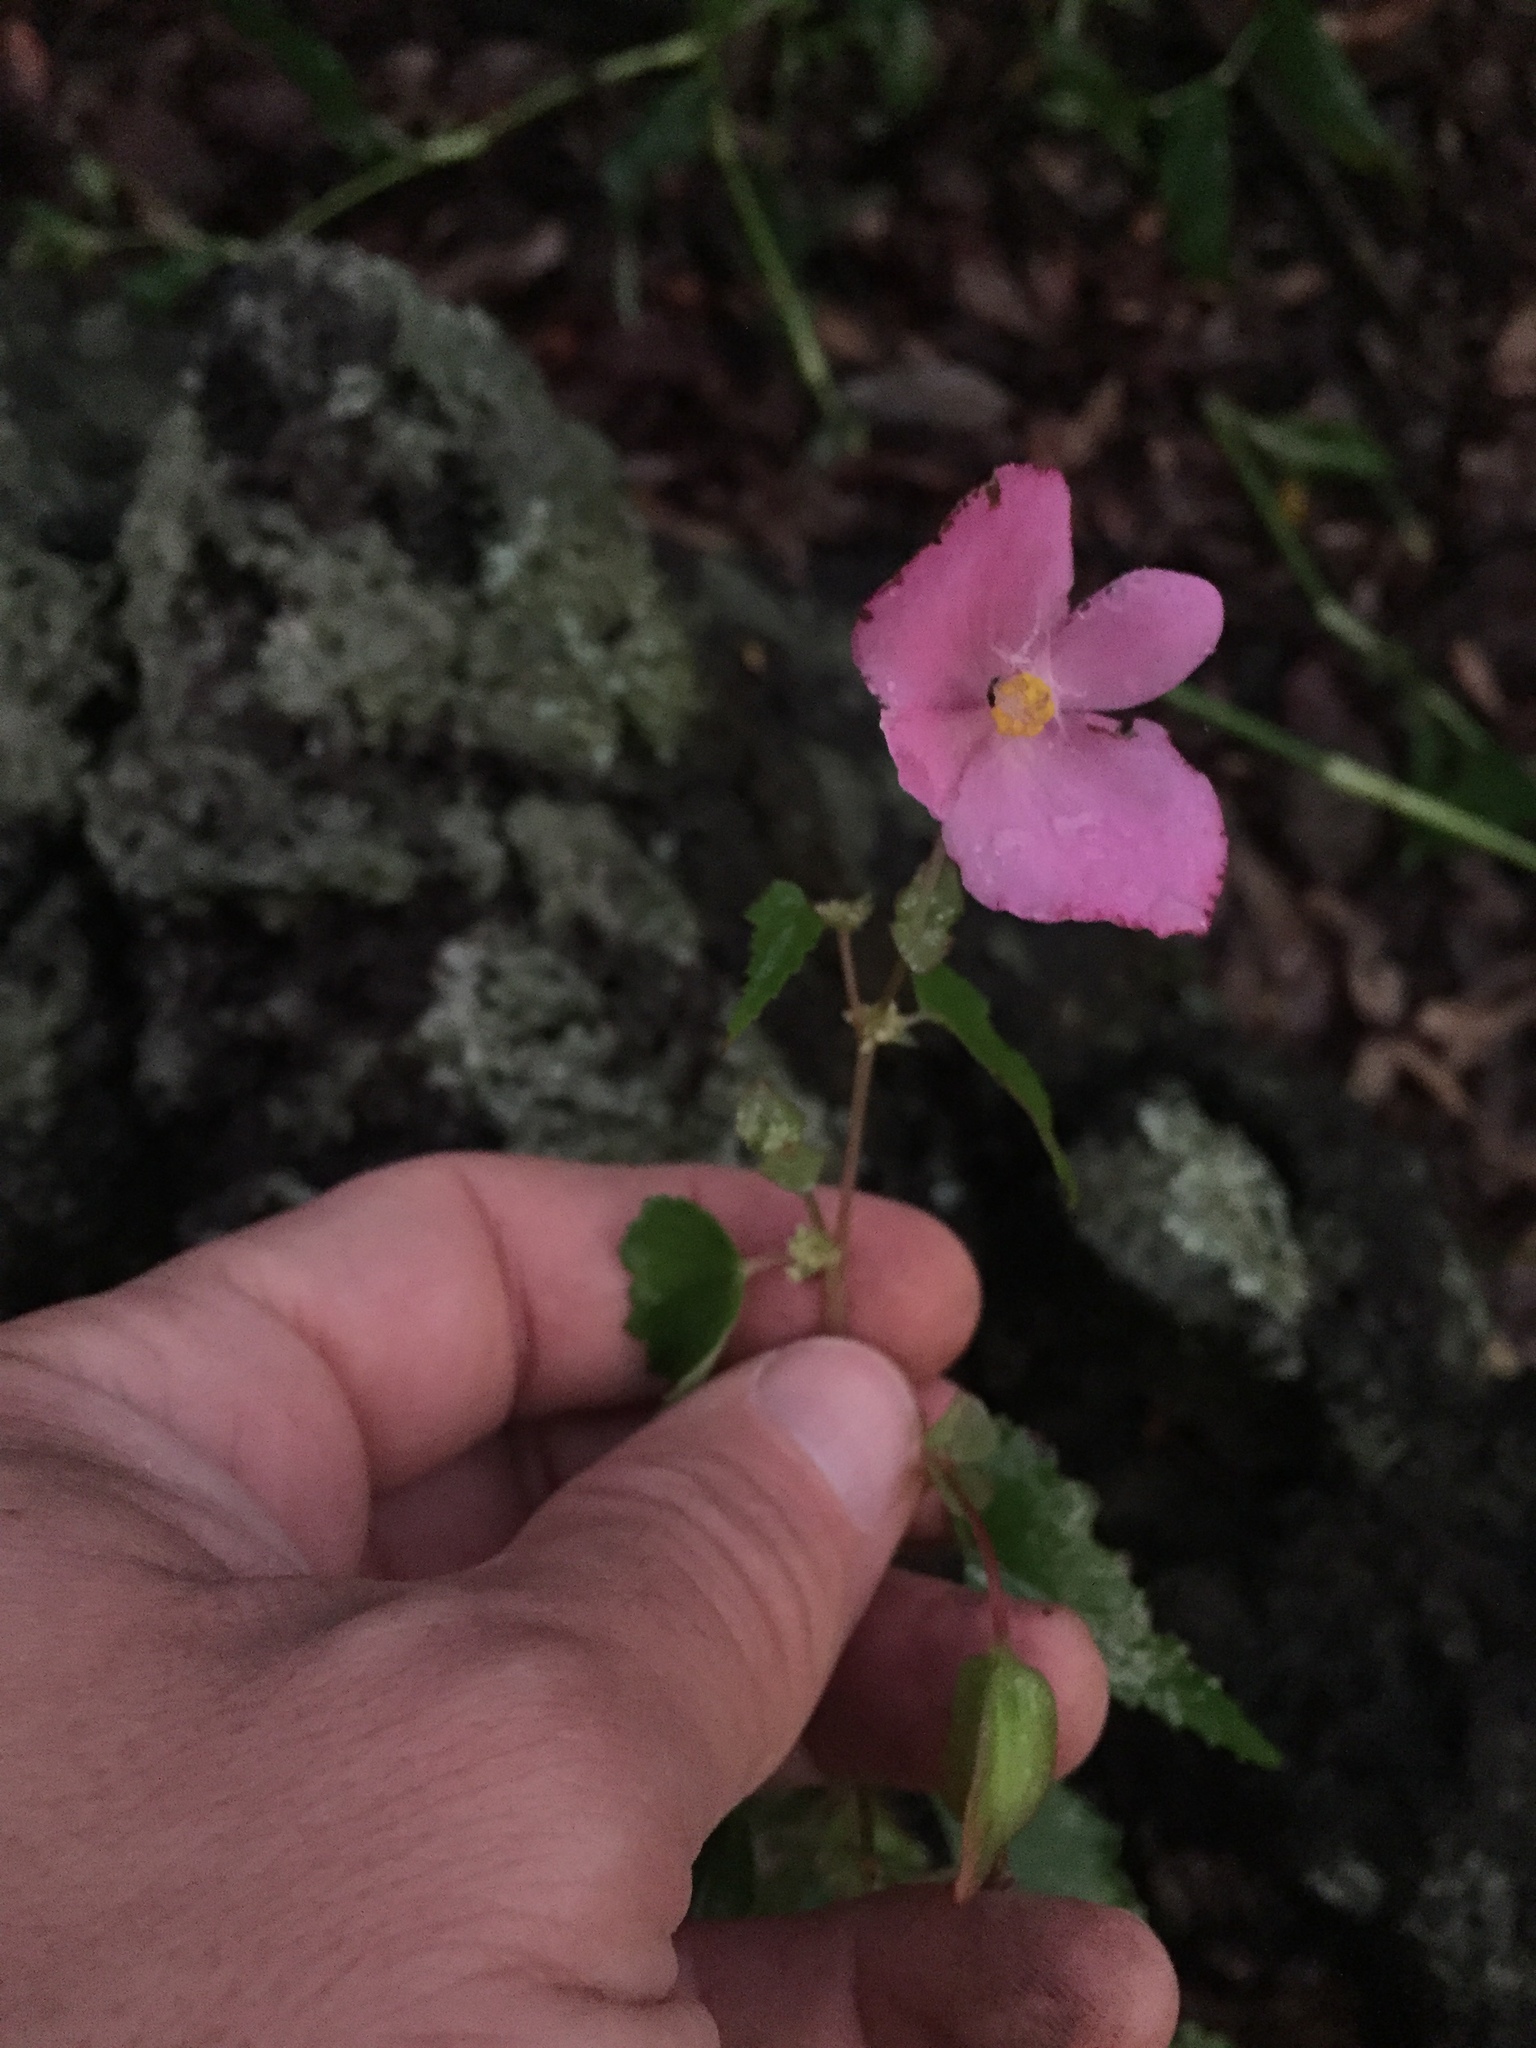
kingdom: Plantae
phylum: Tracheophyta
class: Magnoliopsida
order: Cucurbitales
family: Begoniaceae
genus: Begonia
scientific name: Begonia gracilis
